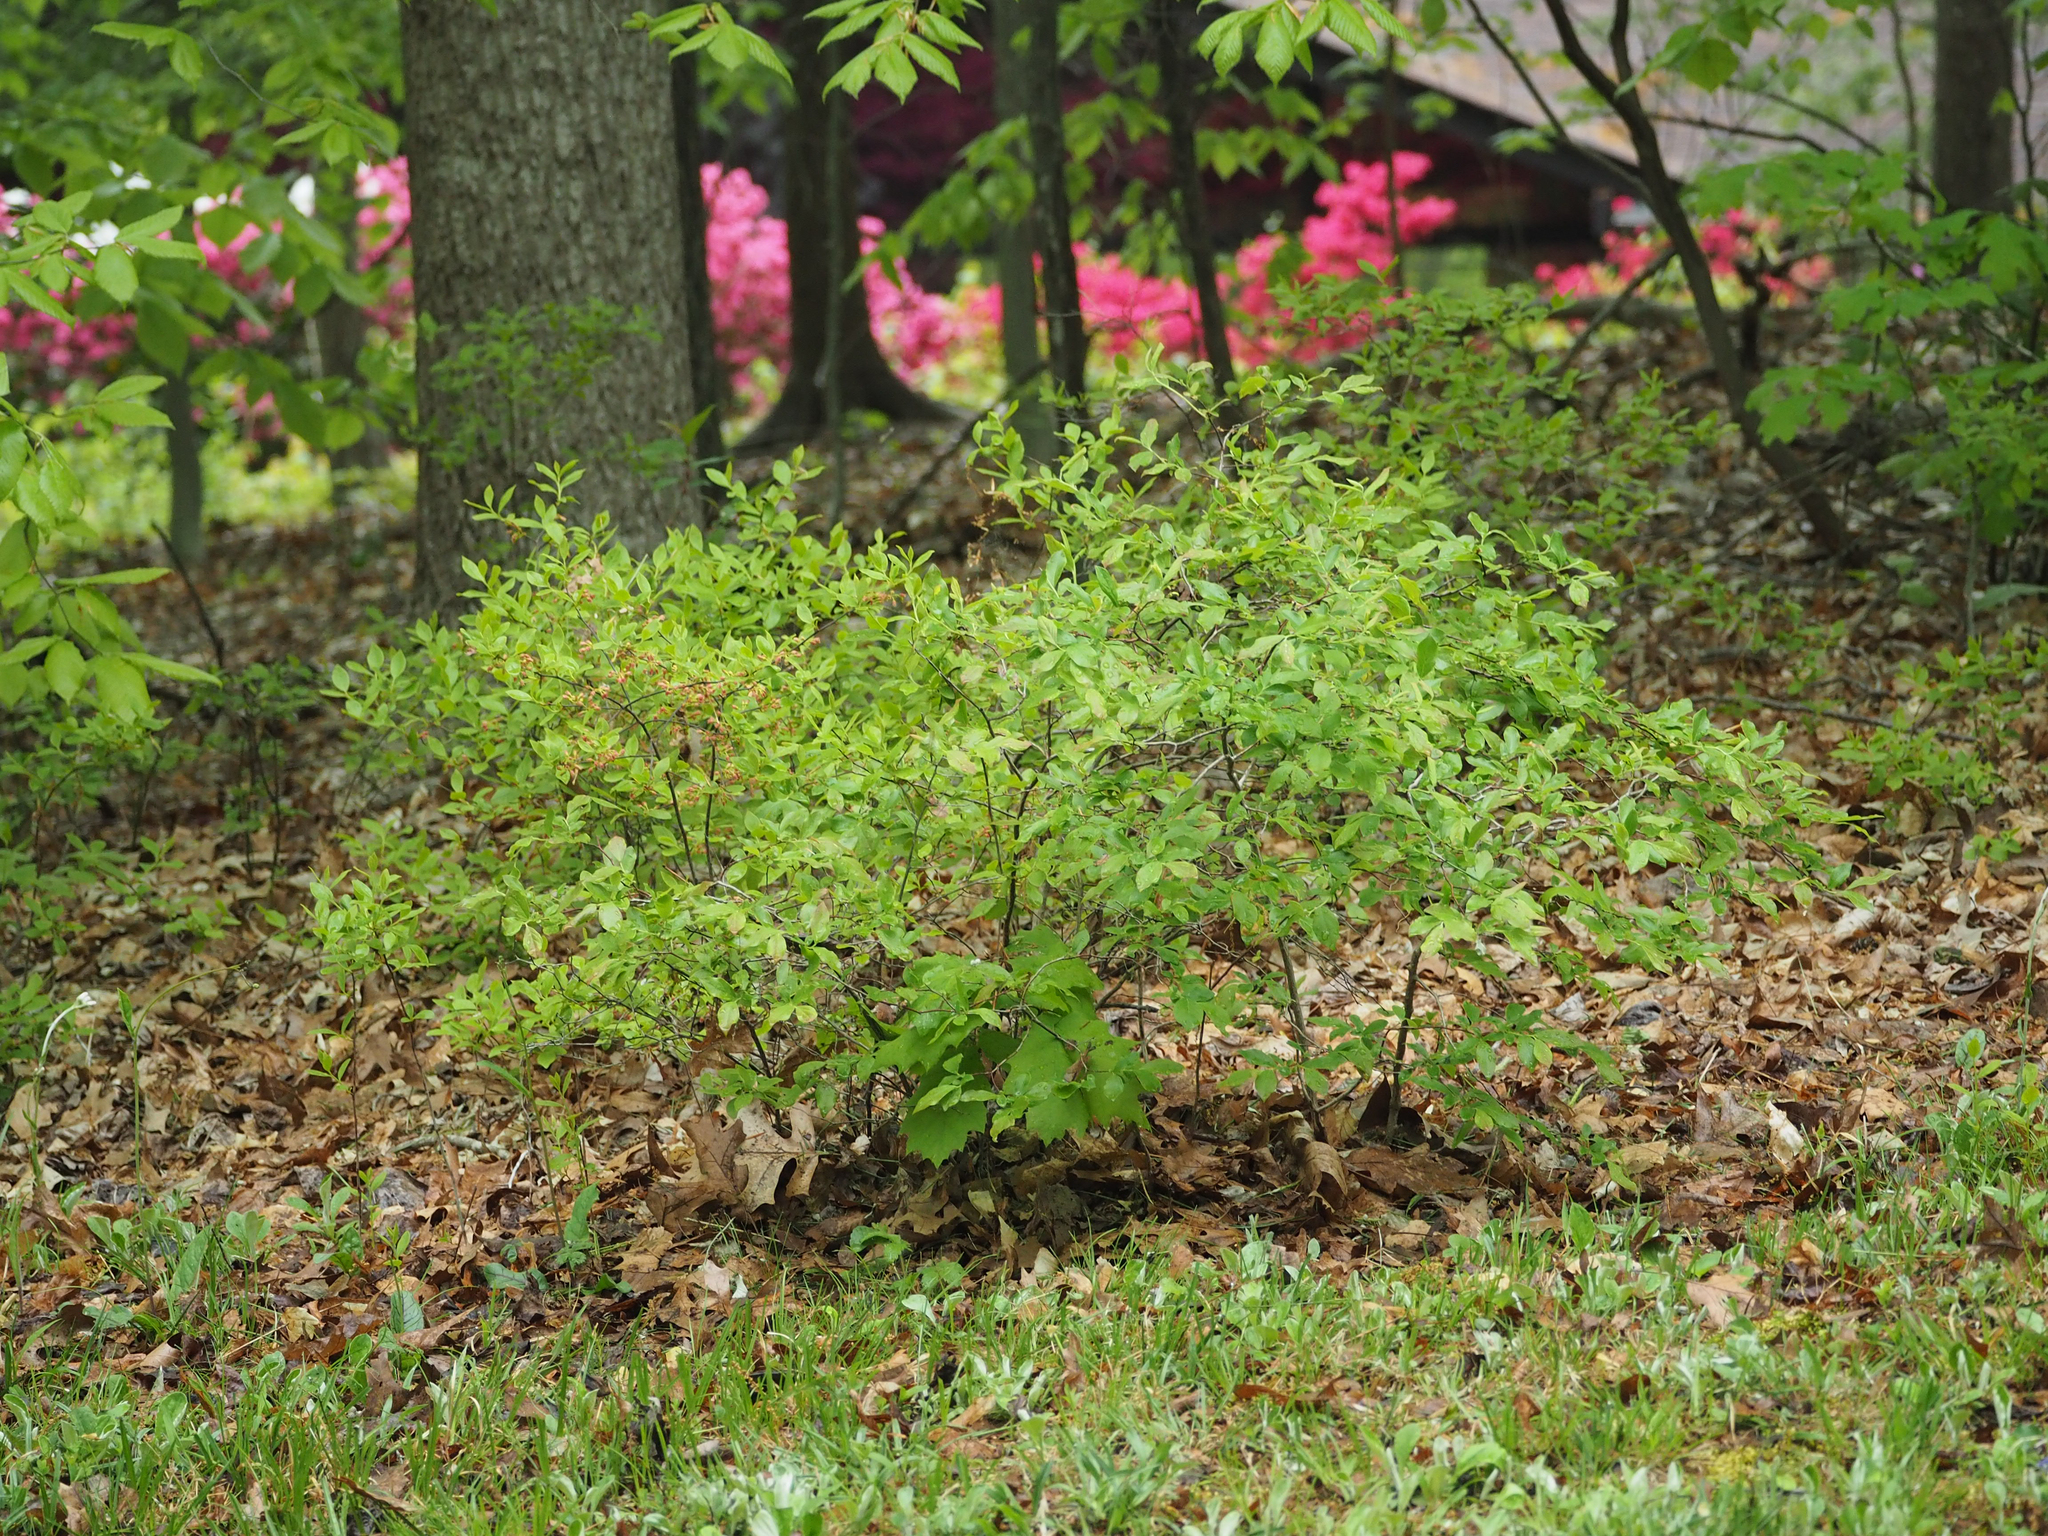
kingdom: Plantae
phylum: Tracheophyta
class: Magnoliopsida
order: Ericales
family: Ericaceae
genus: Gaylussacia
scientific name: Gaylussacia baccata
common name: Black huckleberry
